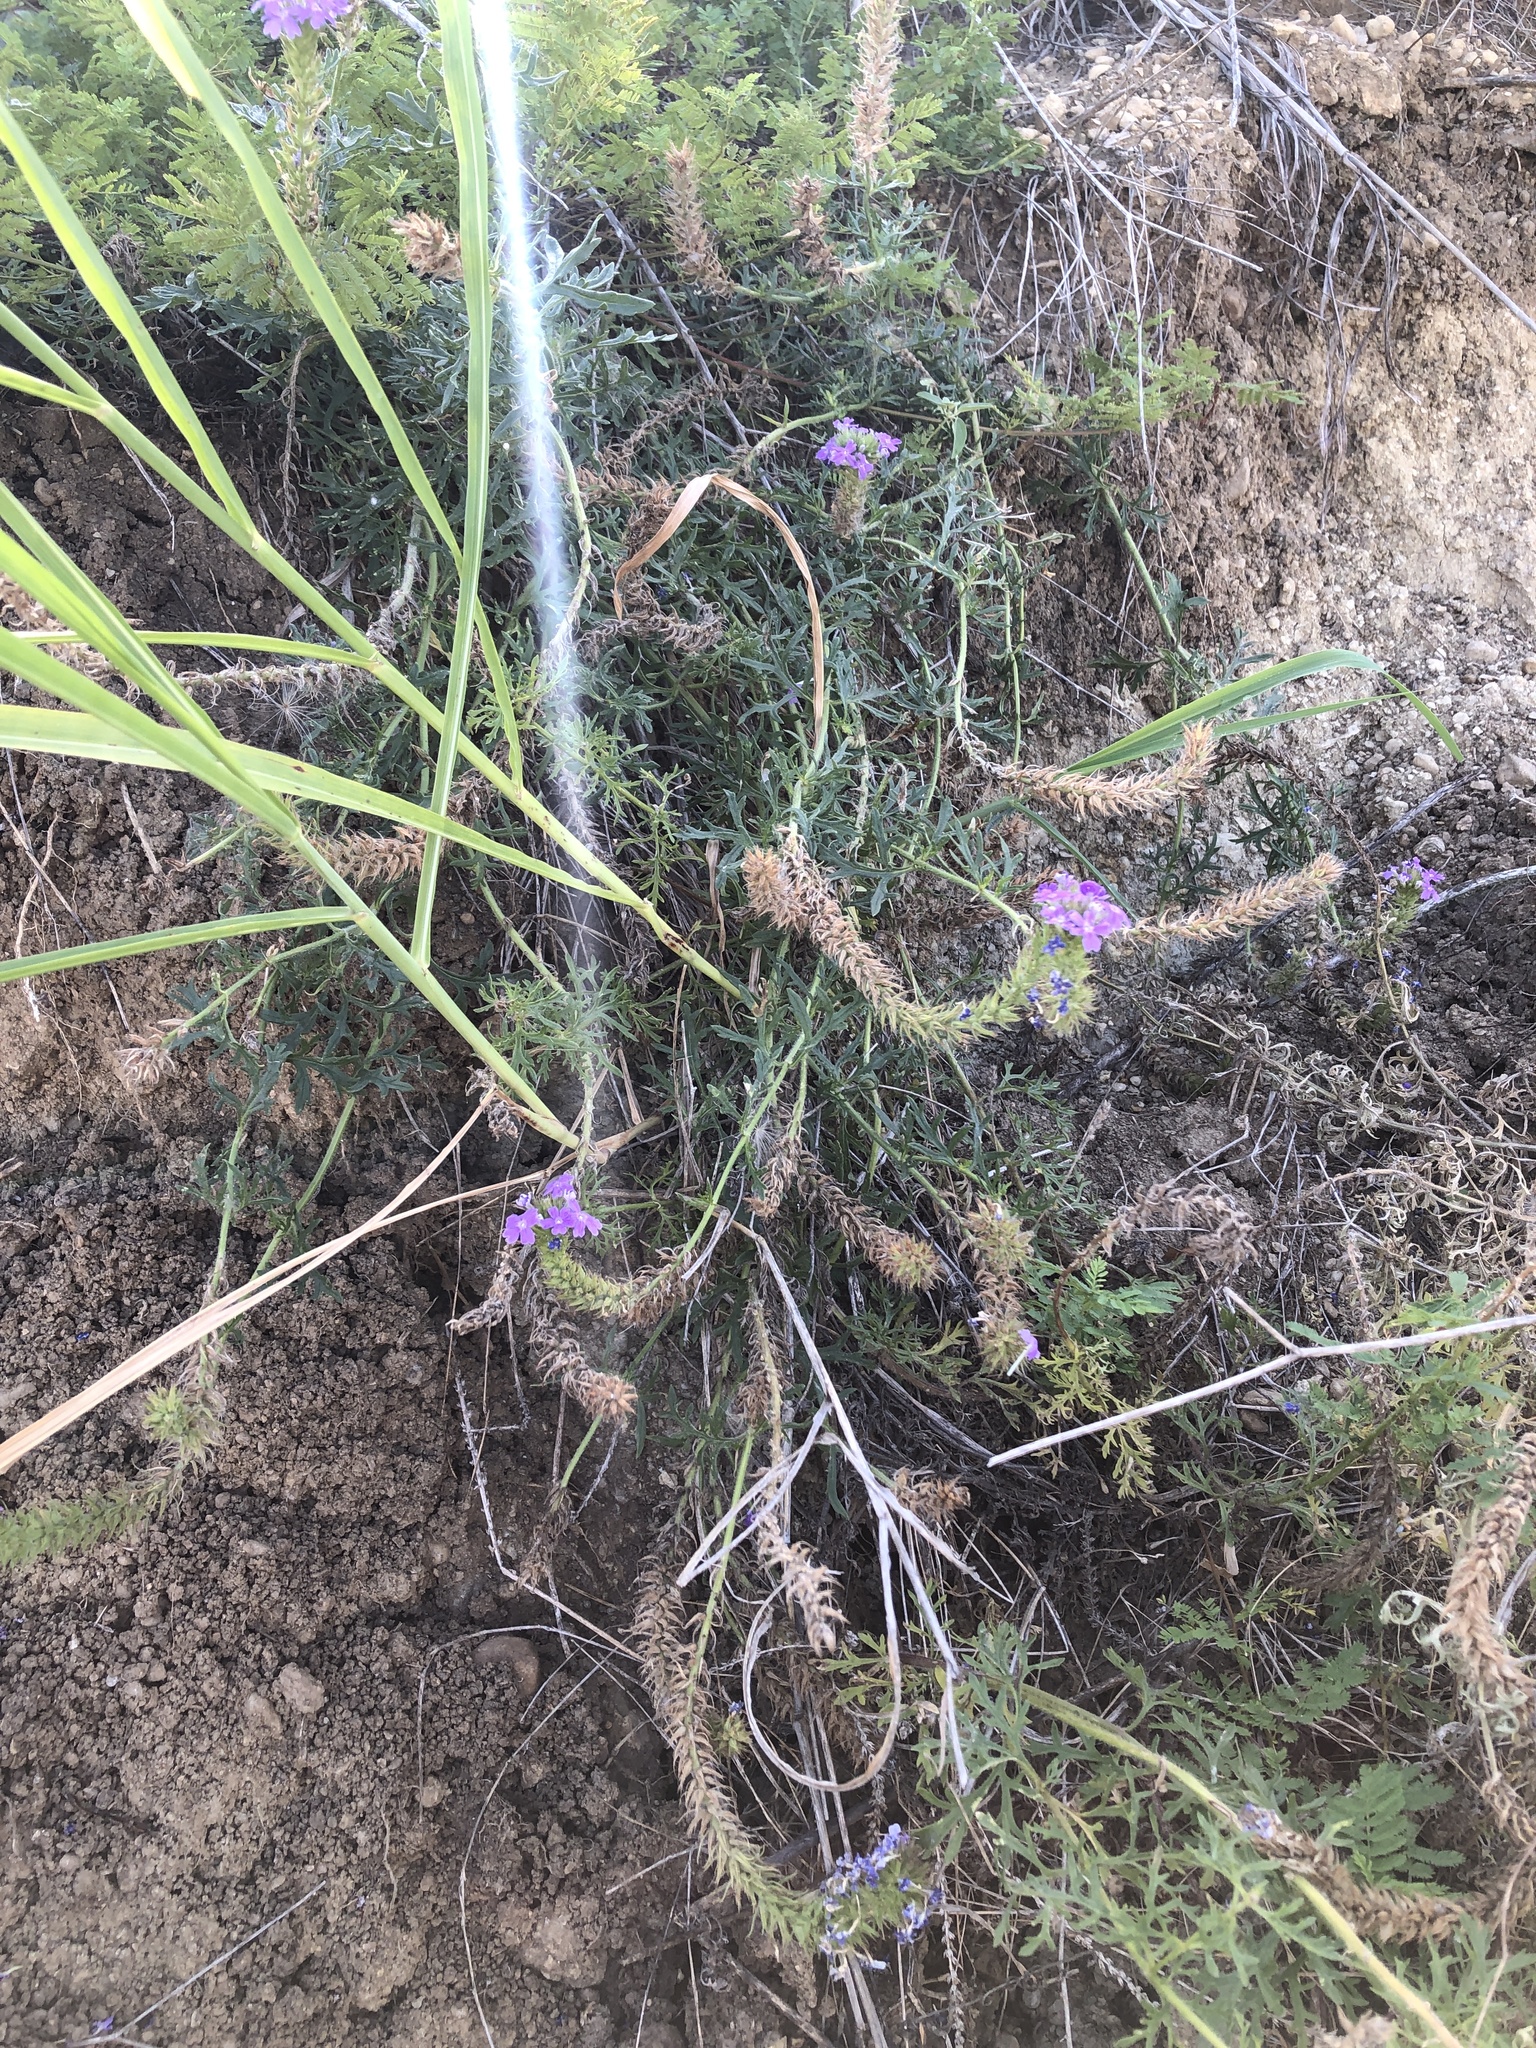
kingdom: Plantae
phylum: Tracheophyta
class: Magnoliopsida
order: Lamiales
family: Verbenaceae
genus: Verbena
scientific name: Verbena bipinnatifida
